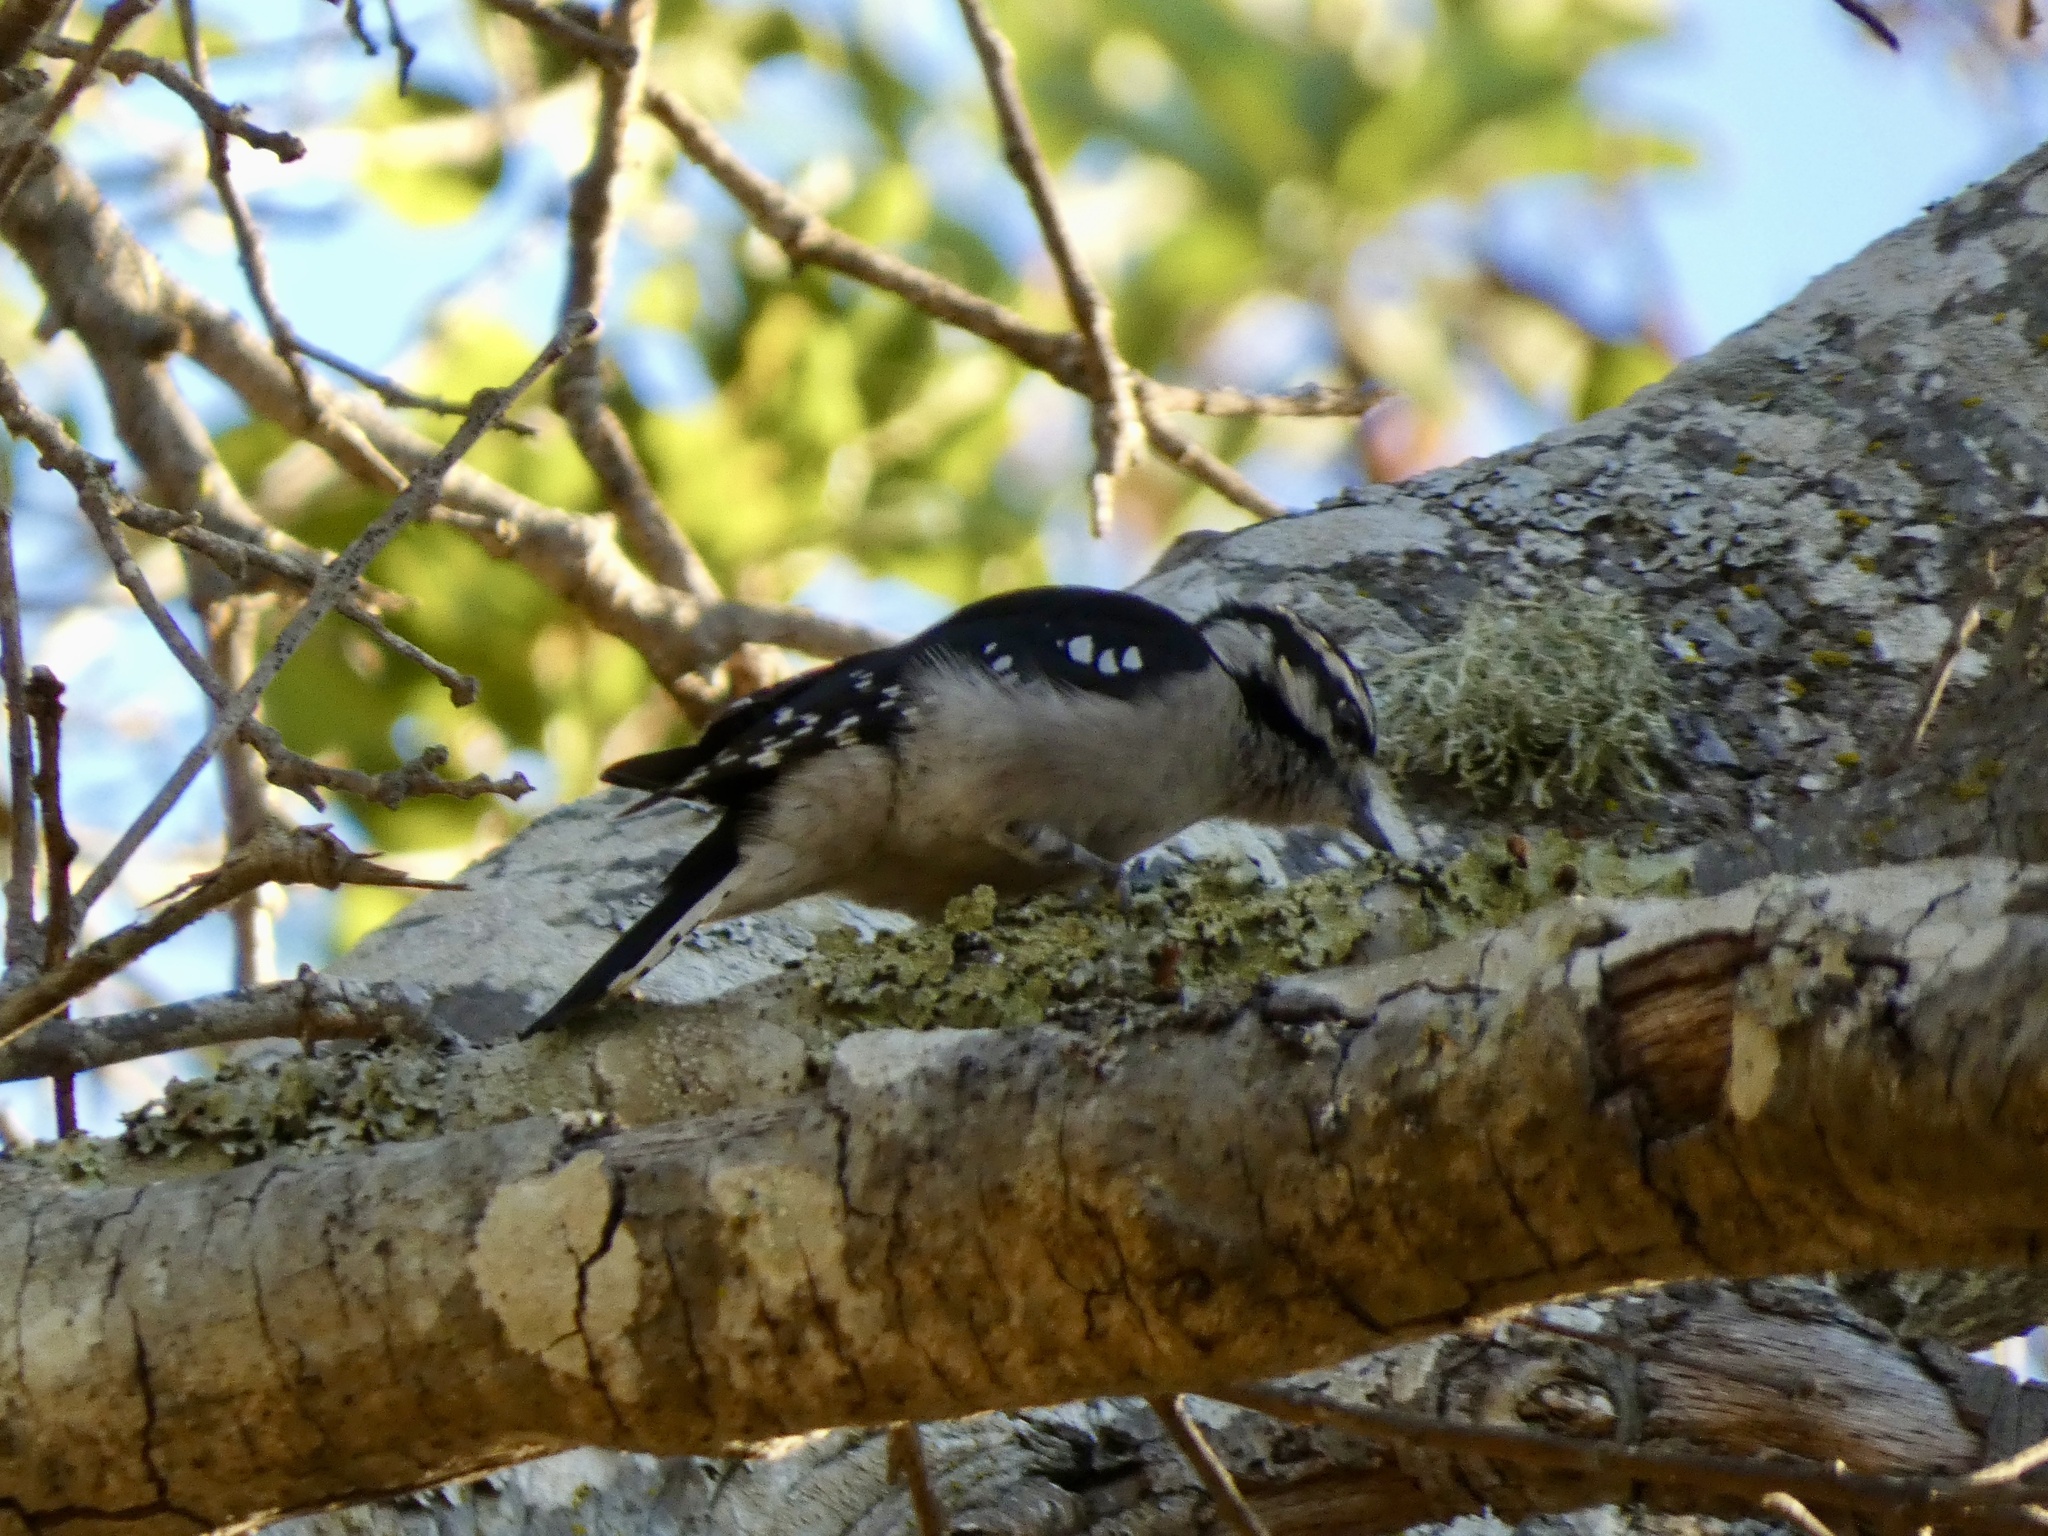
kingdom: Animalia
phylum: Chordata
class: Aves
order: Piciformes
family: Picidae
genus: Dryobates
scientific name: Dryobates pubescens
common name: Downy woodpecker
